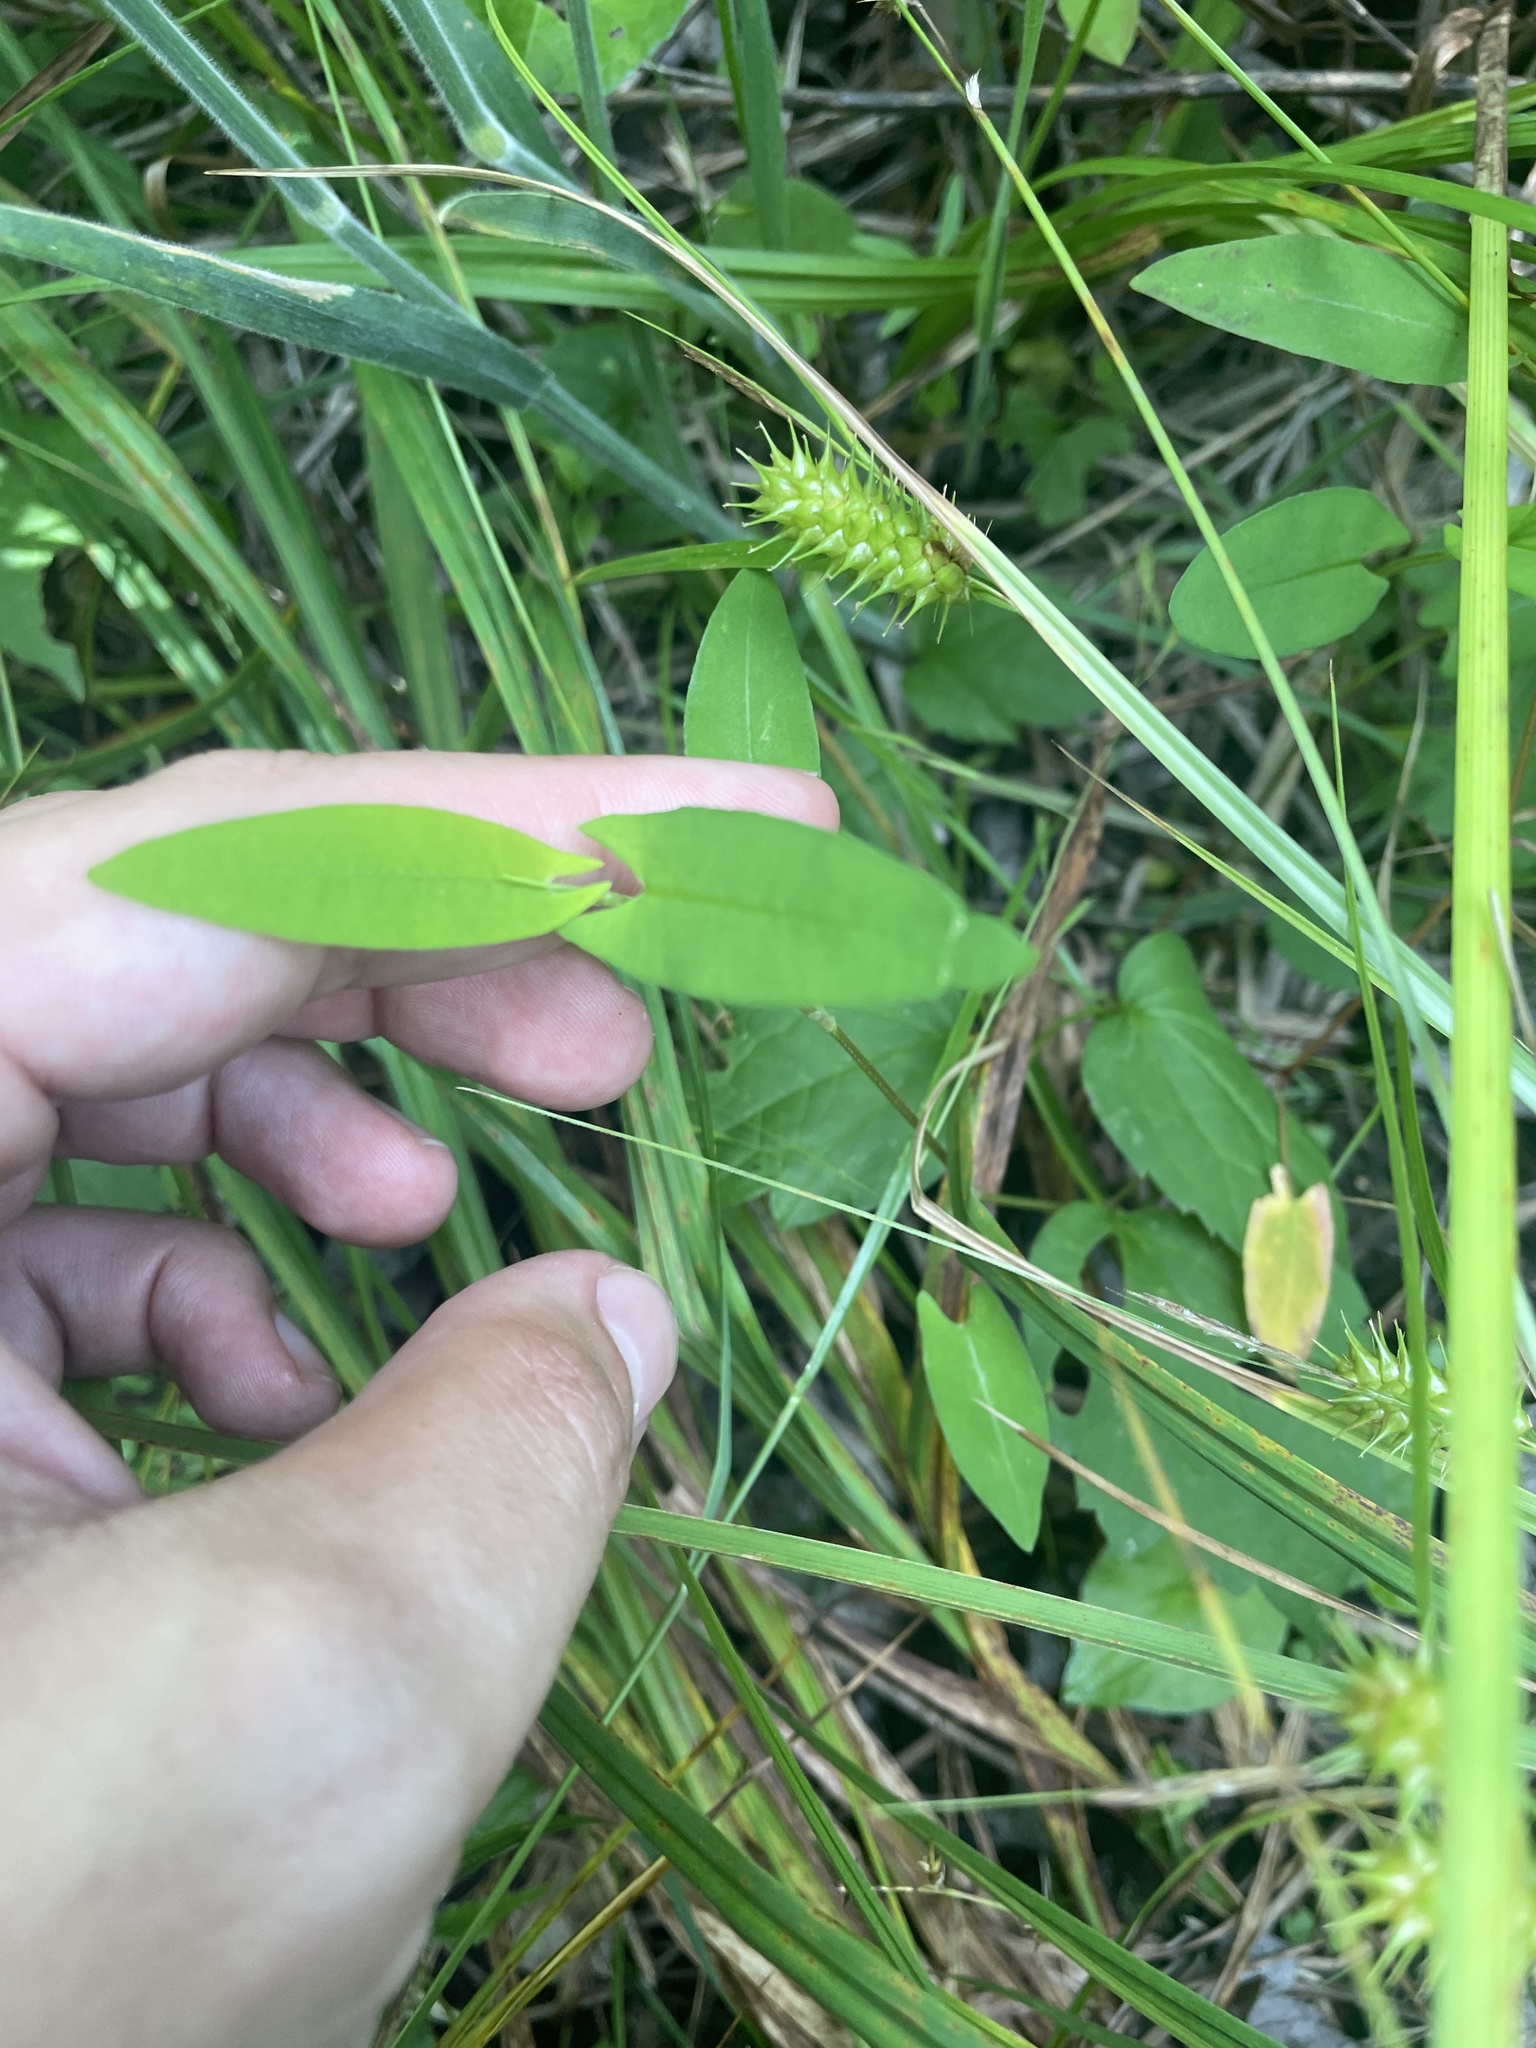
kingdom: Plantae
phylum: Tracheophyta
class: Magnoliopsida
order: Caryophyllales
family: Polygonaceae
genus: Persicaria
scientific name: Persicaria sagittata
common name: American tearthumb
